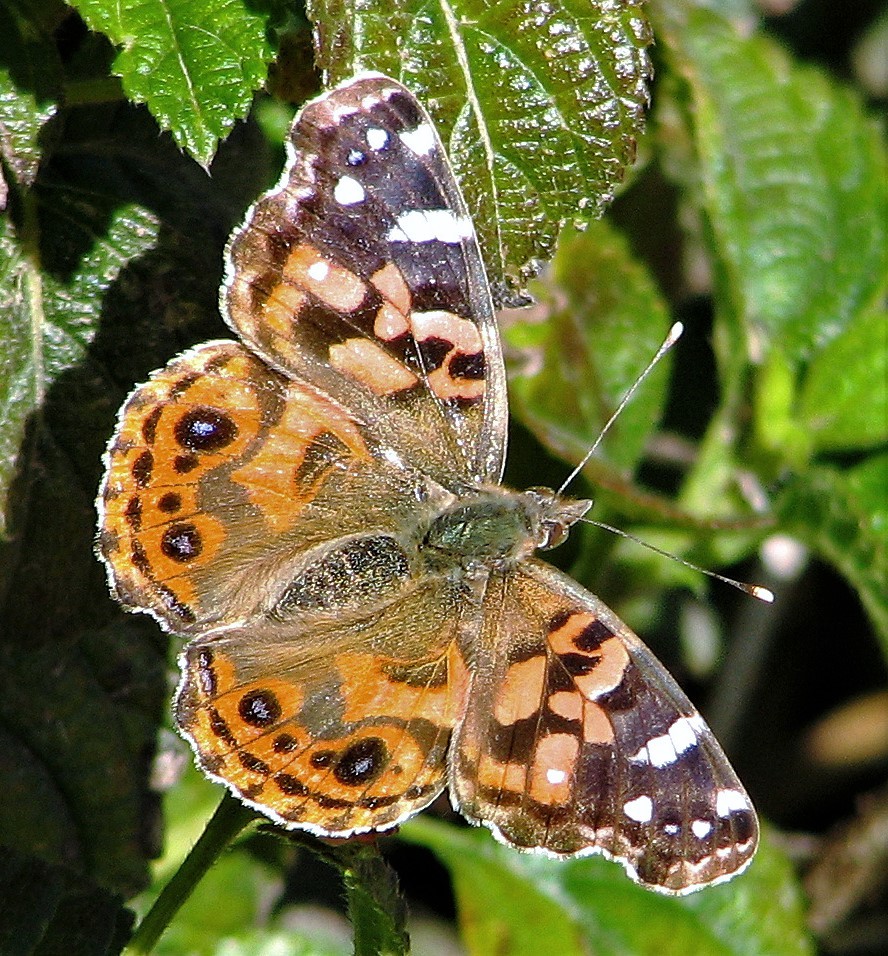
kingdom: Animalia
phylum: Arthropoda
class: Insecta
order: Lepidoptera
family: Nymphalidae
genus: Vanessa
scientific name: Vanessa braziliensis
